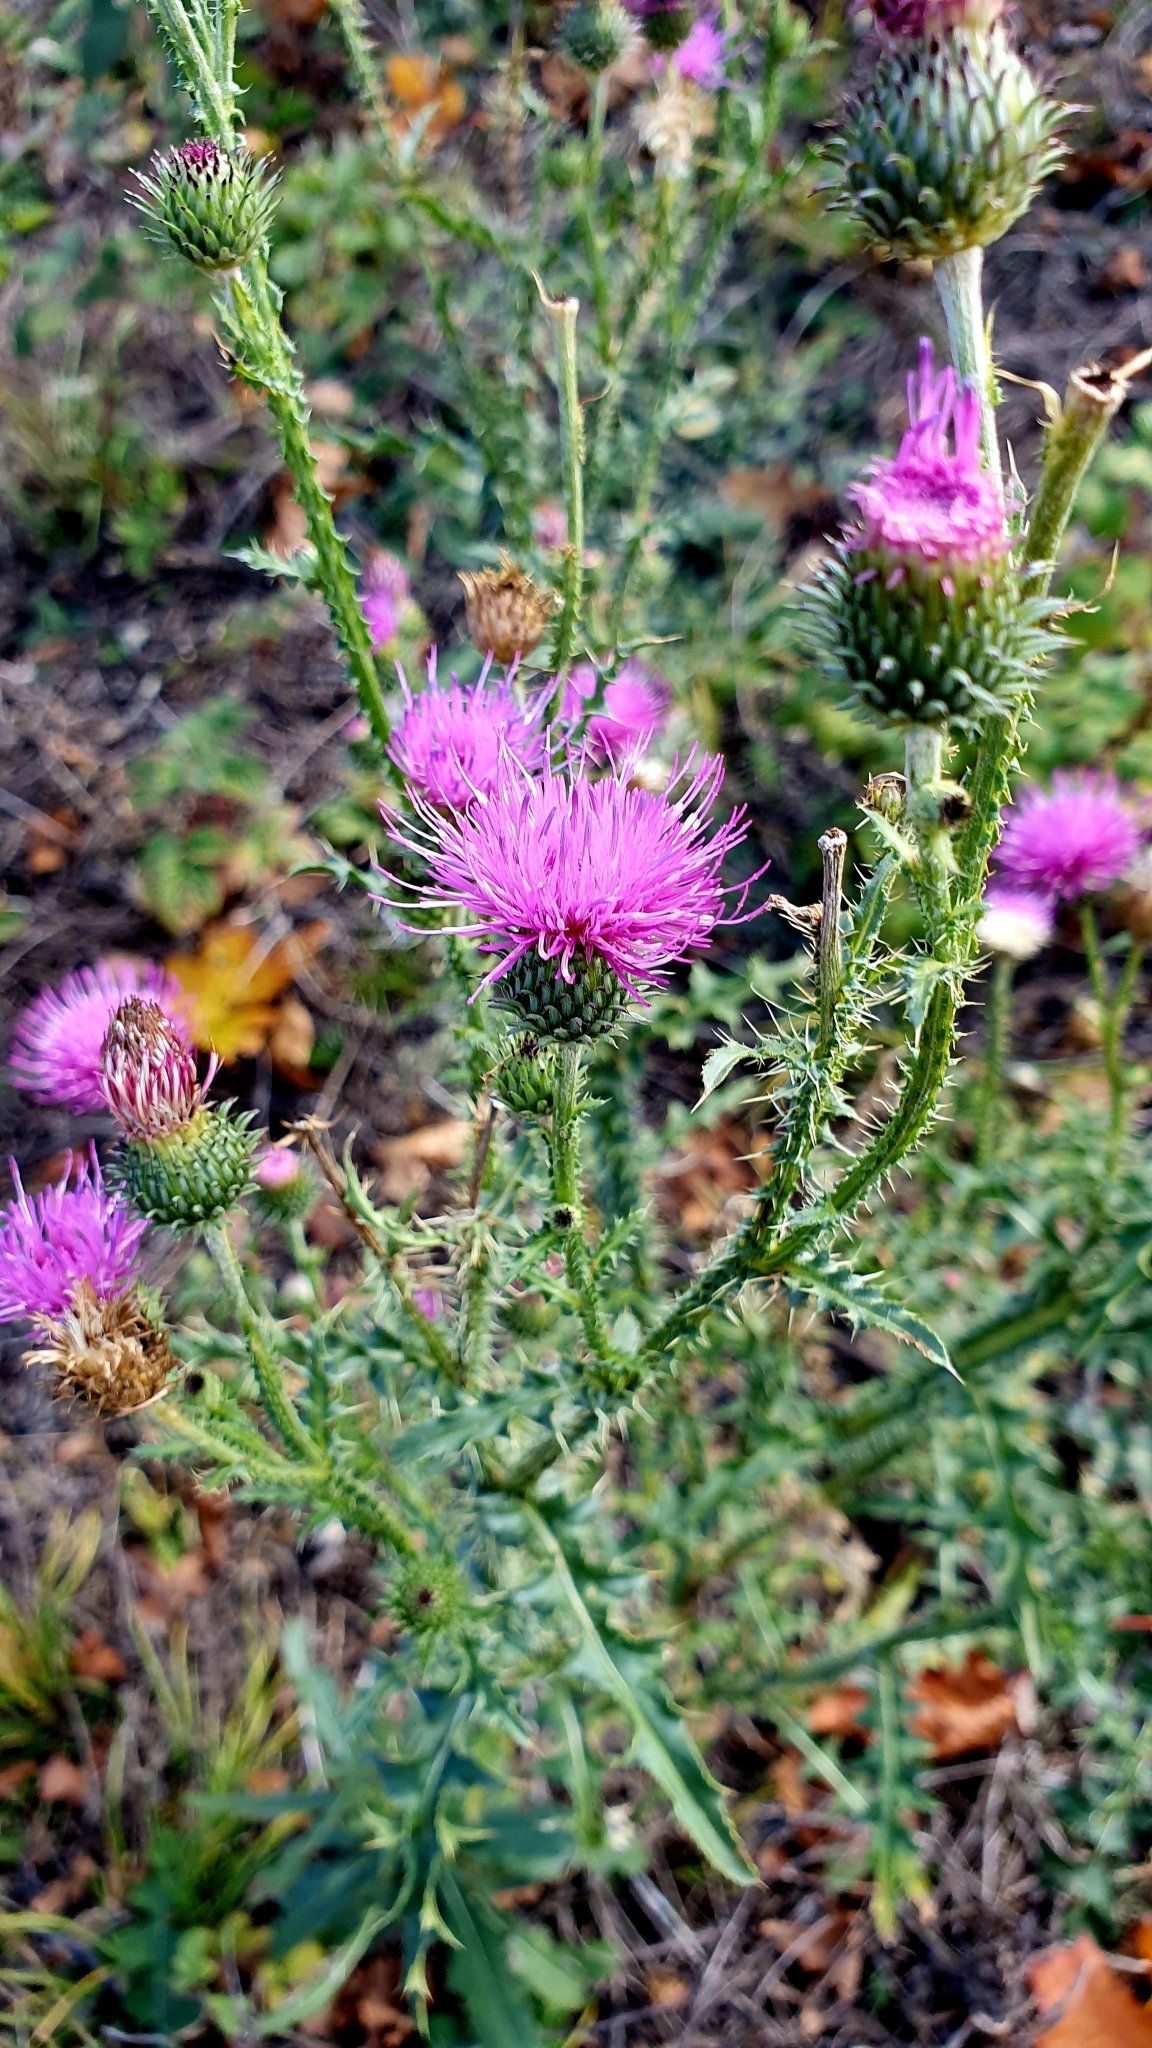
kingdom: Plantae
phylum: Tracheophyta
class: Magnoliopsida
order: Asterales
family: Asteraceae
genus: Carduus
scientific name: Carduus acanthoides
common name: Plumeless thistle
